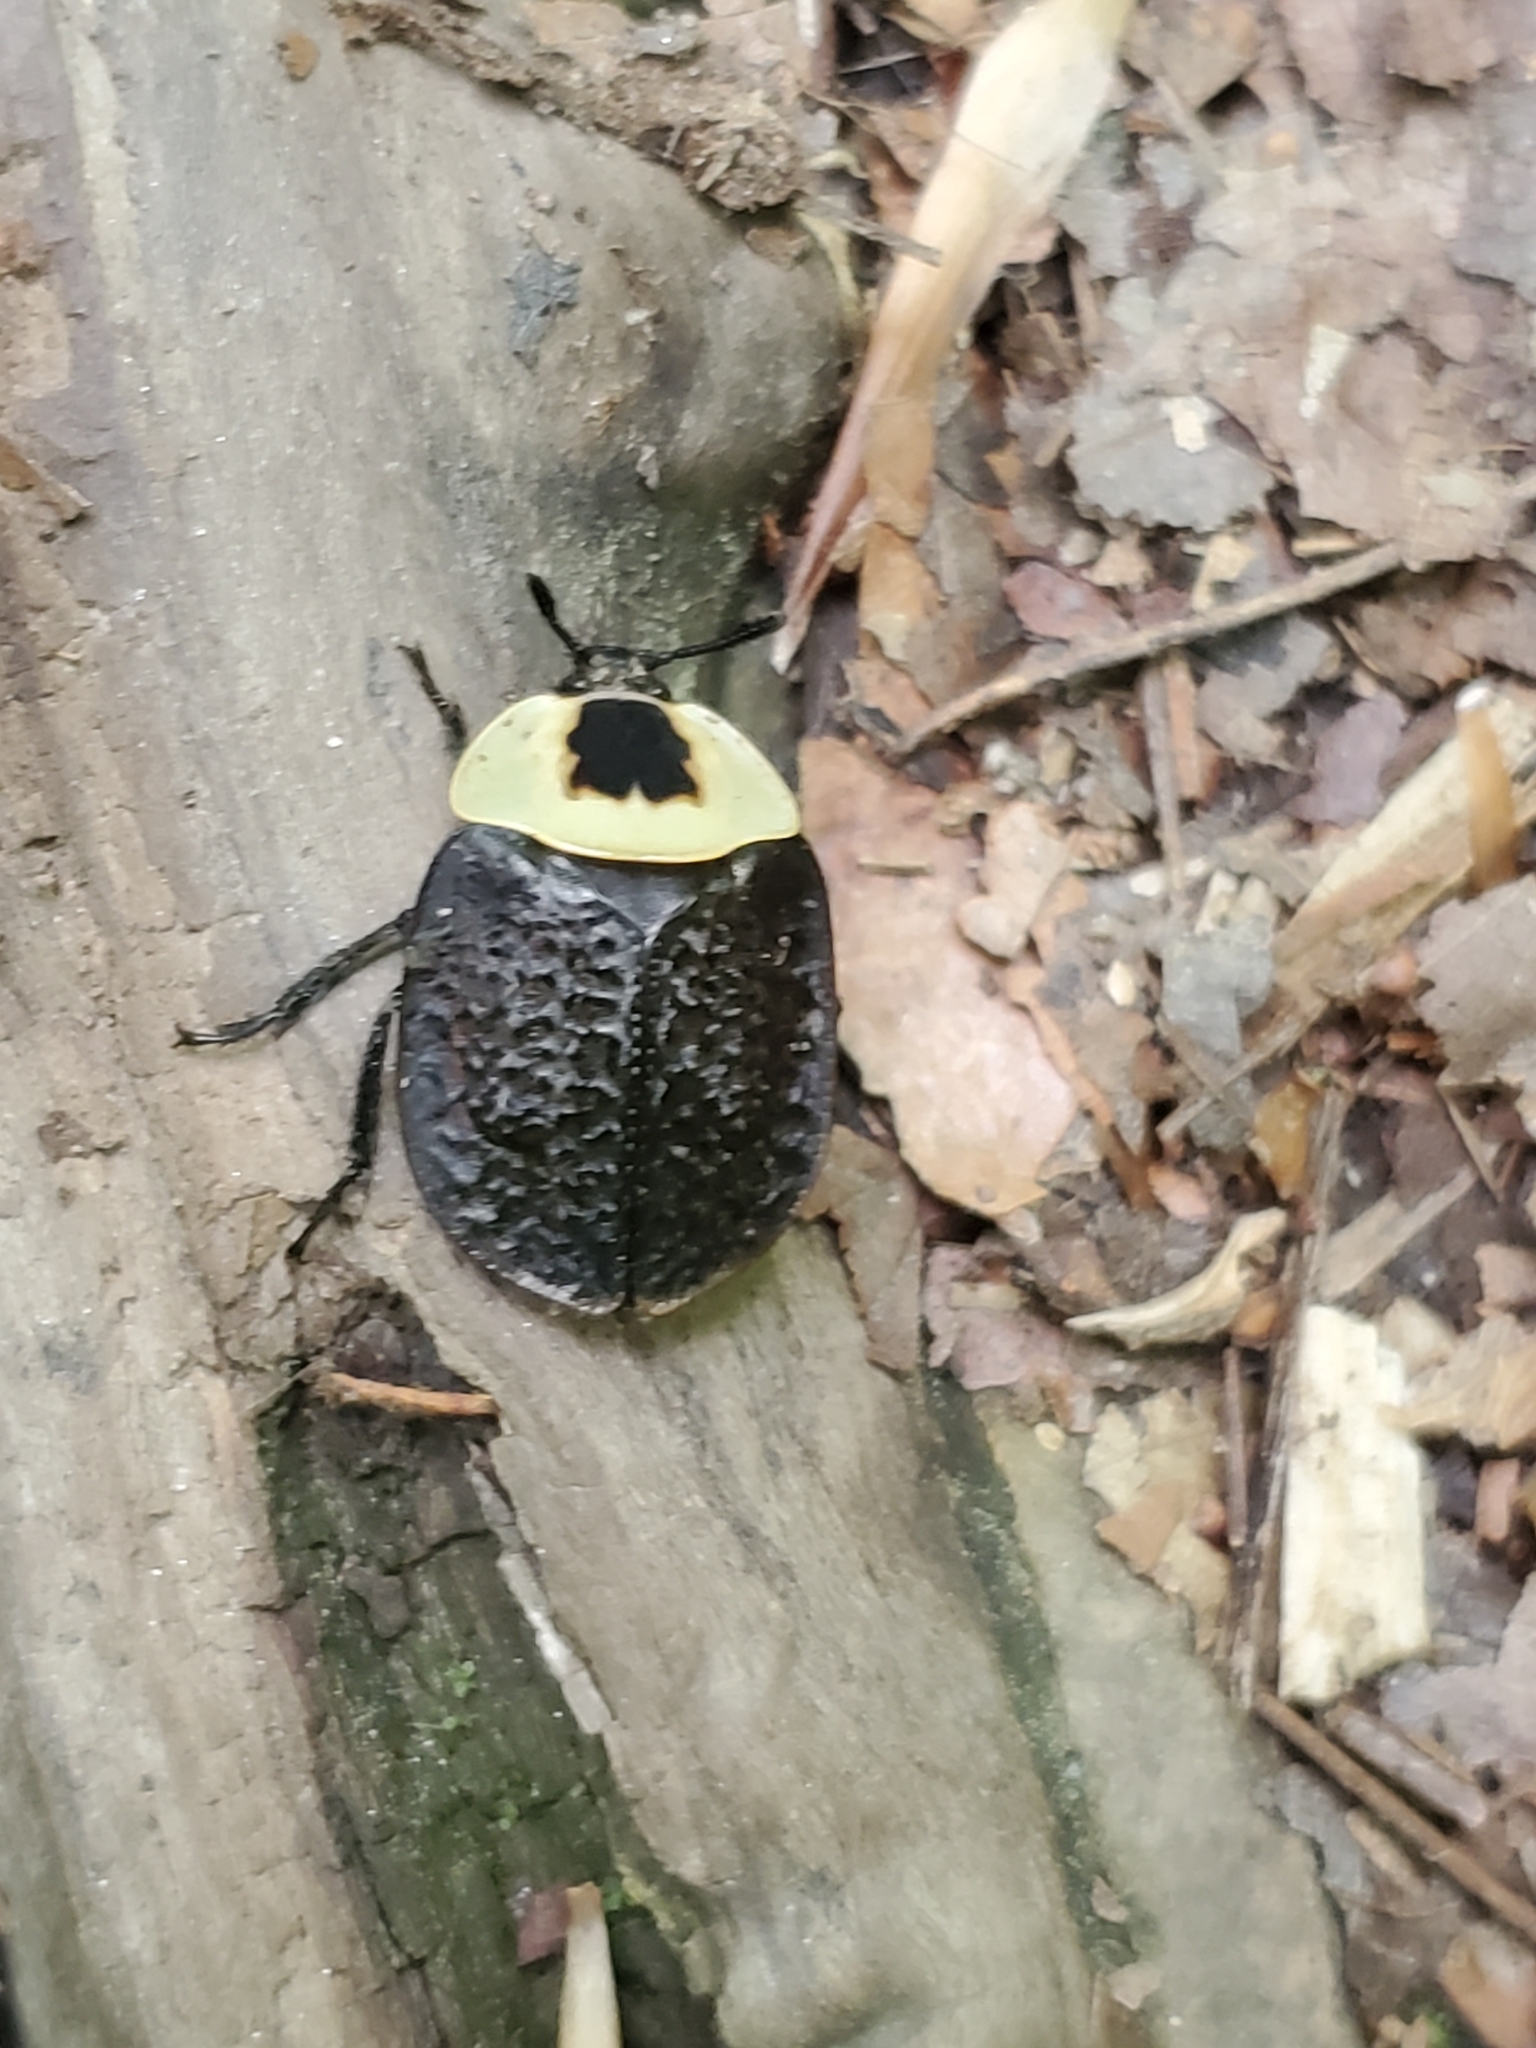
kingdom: Animalia
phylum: Arthropoda
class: Insecta
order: Coleoptera
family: Staphylinidae
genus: Necrophila
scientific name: Necrophila americana
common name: American carrion beetle
